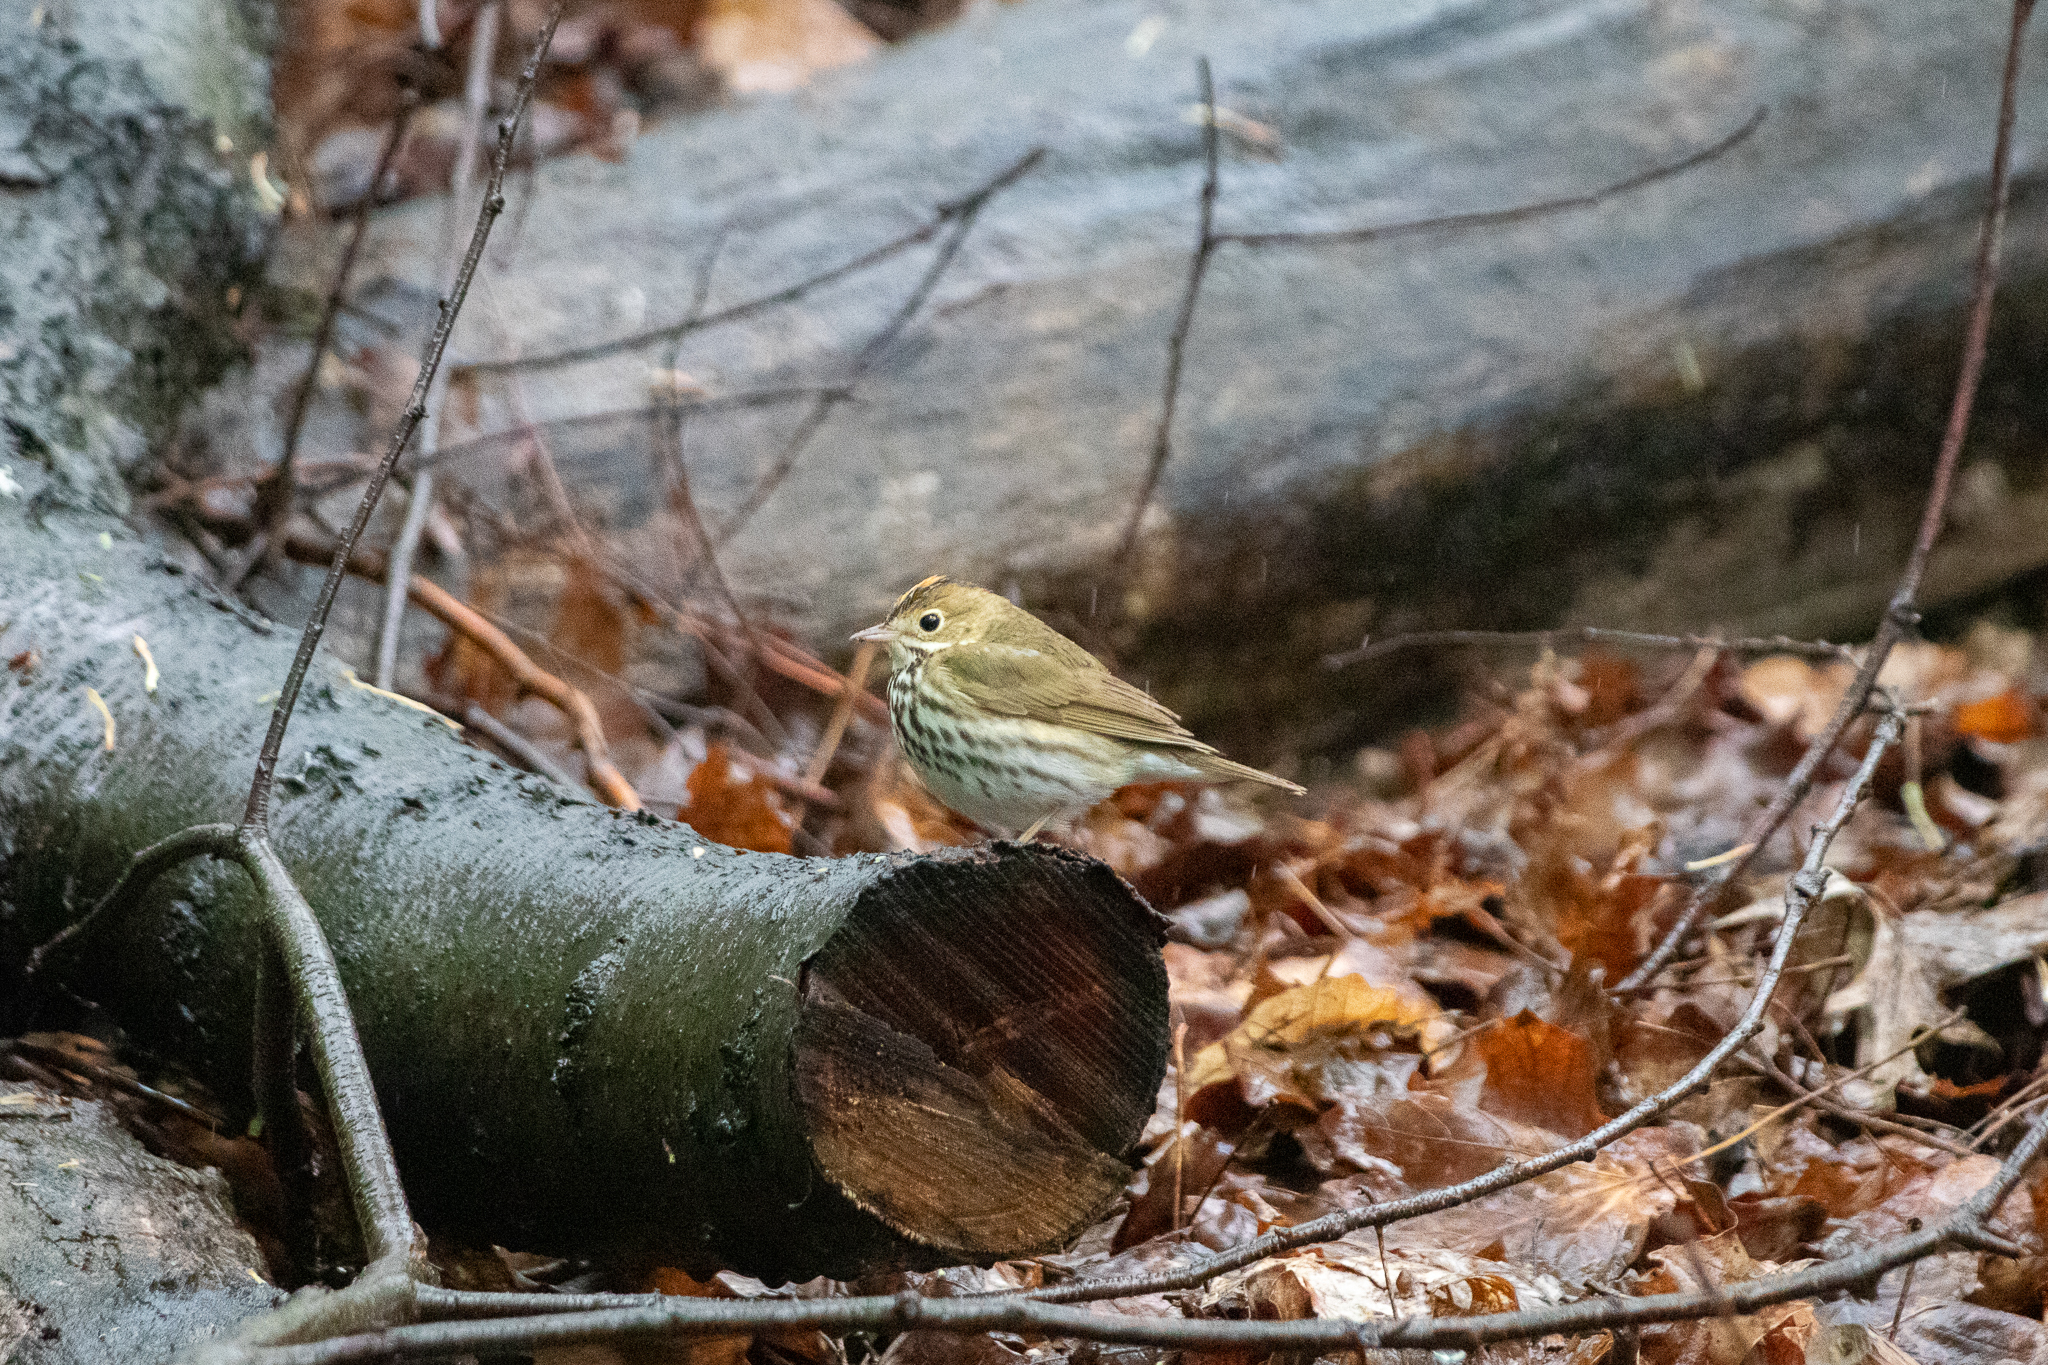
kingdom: Animalia
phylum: Chordata
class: Aves
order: Passeriformes
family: Parulidae
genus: Seiurus
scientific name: Seiurus aurocapilla
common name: Ovenbird
